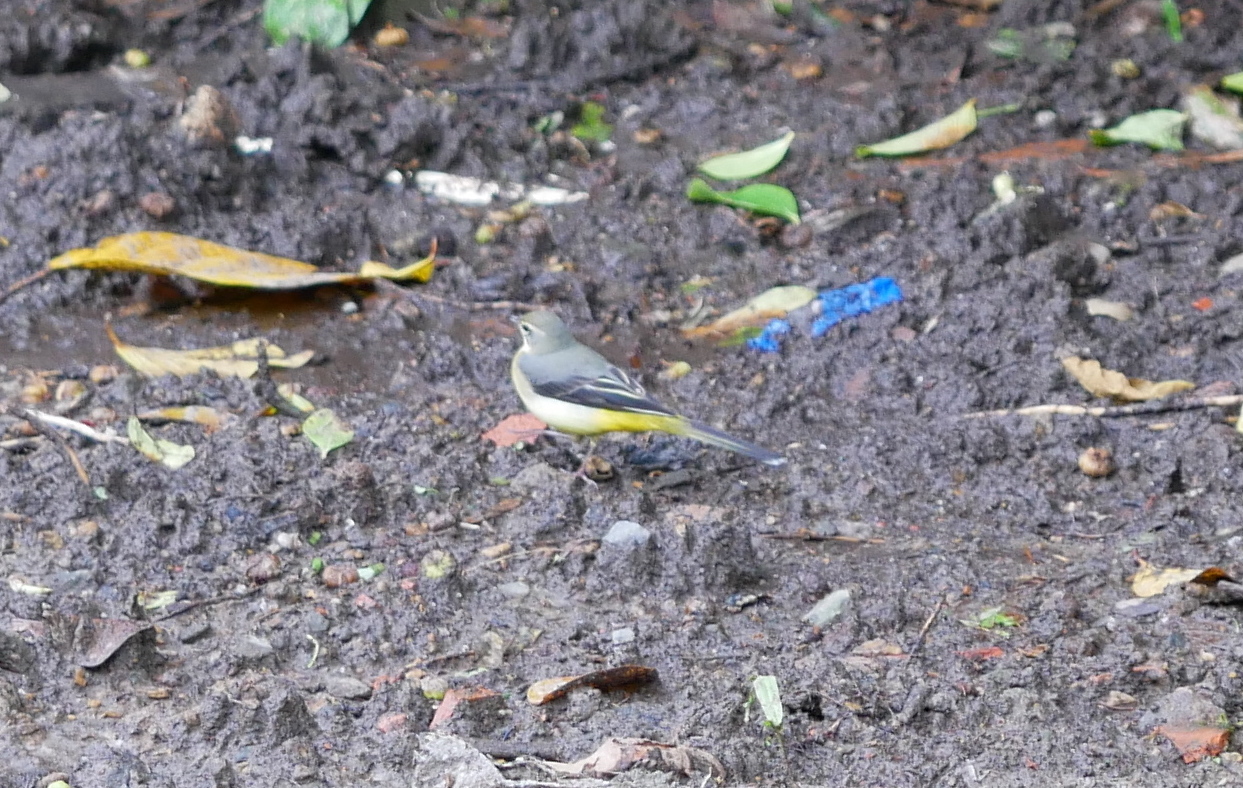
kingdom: Animalia
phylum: Chordata
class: Aves
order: Passeriformes
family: Motacillidae
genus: Motacilla
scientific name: Motacilla cinerea
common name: Grey wagtail
